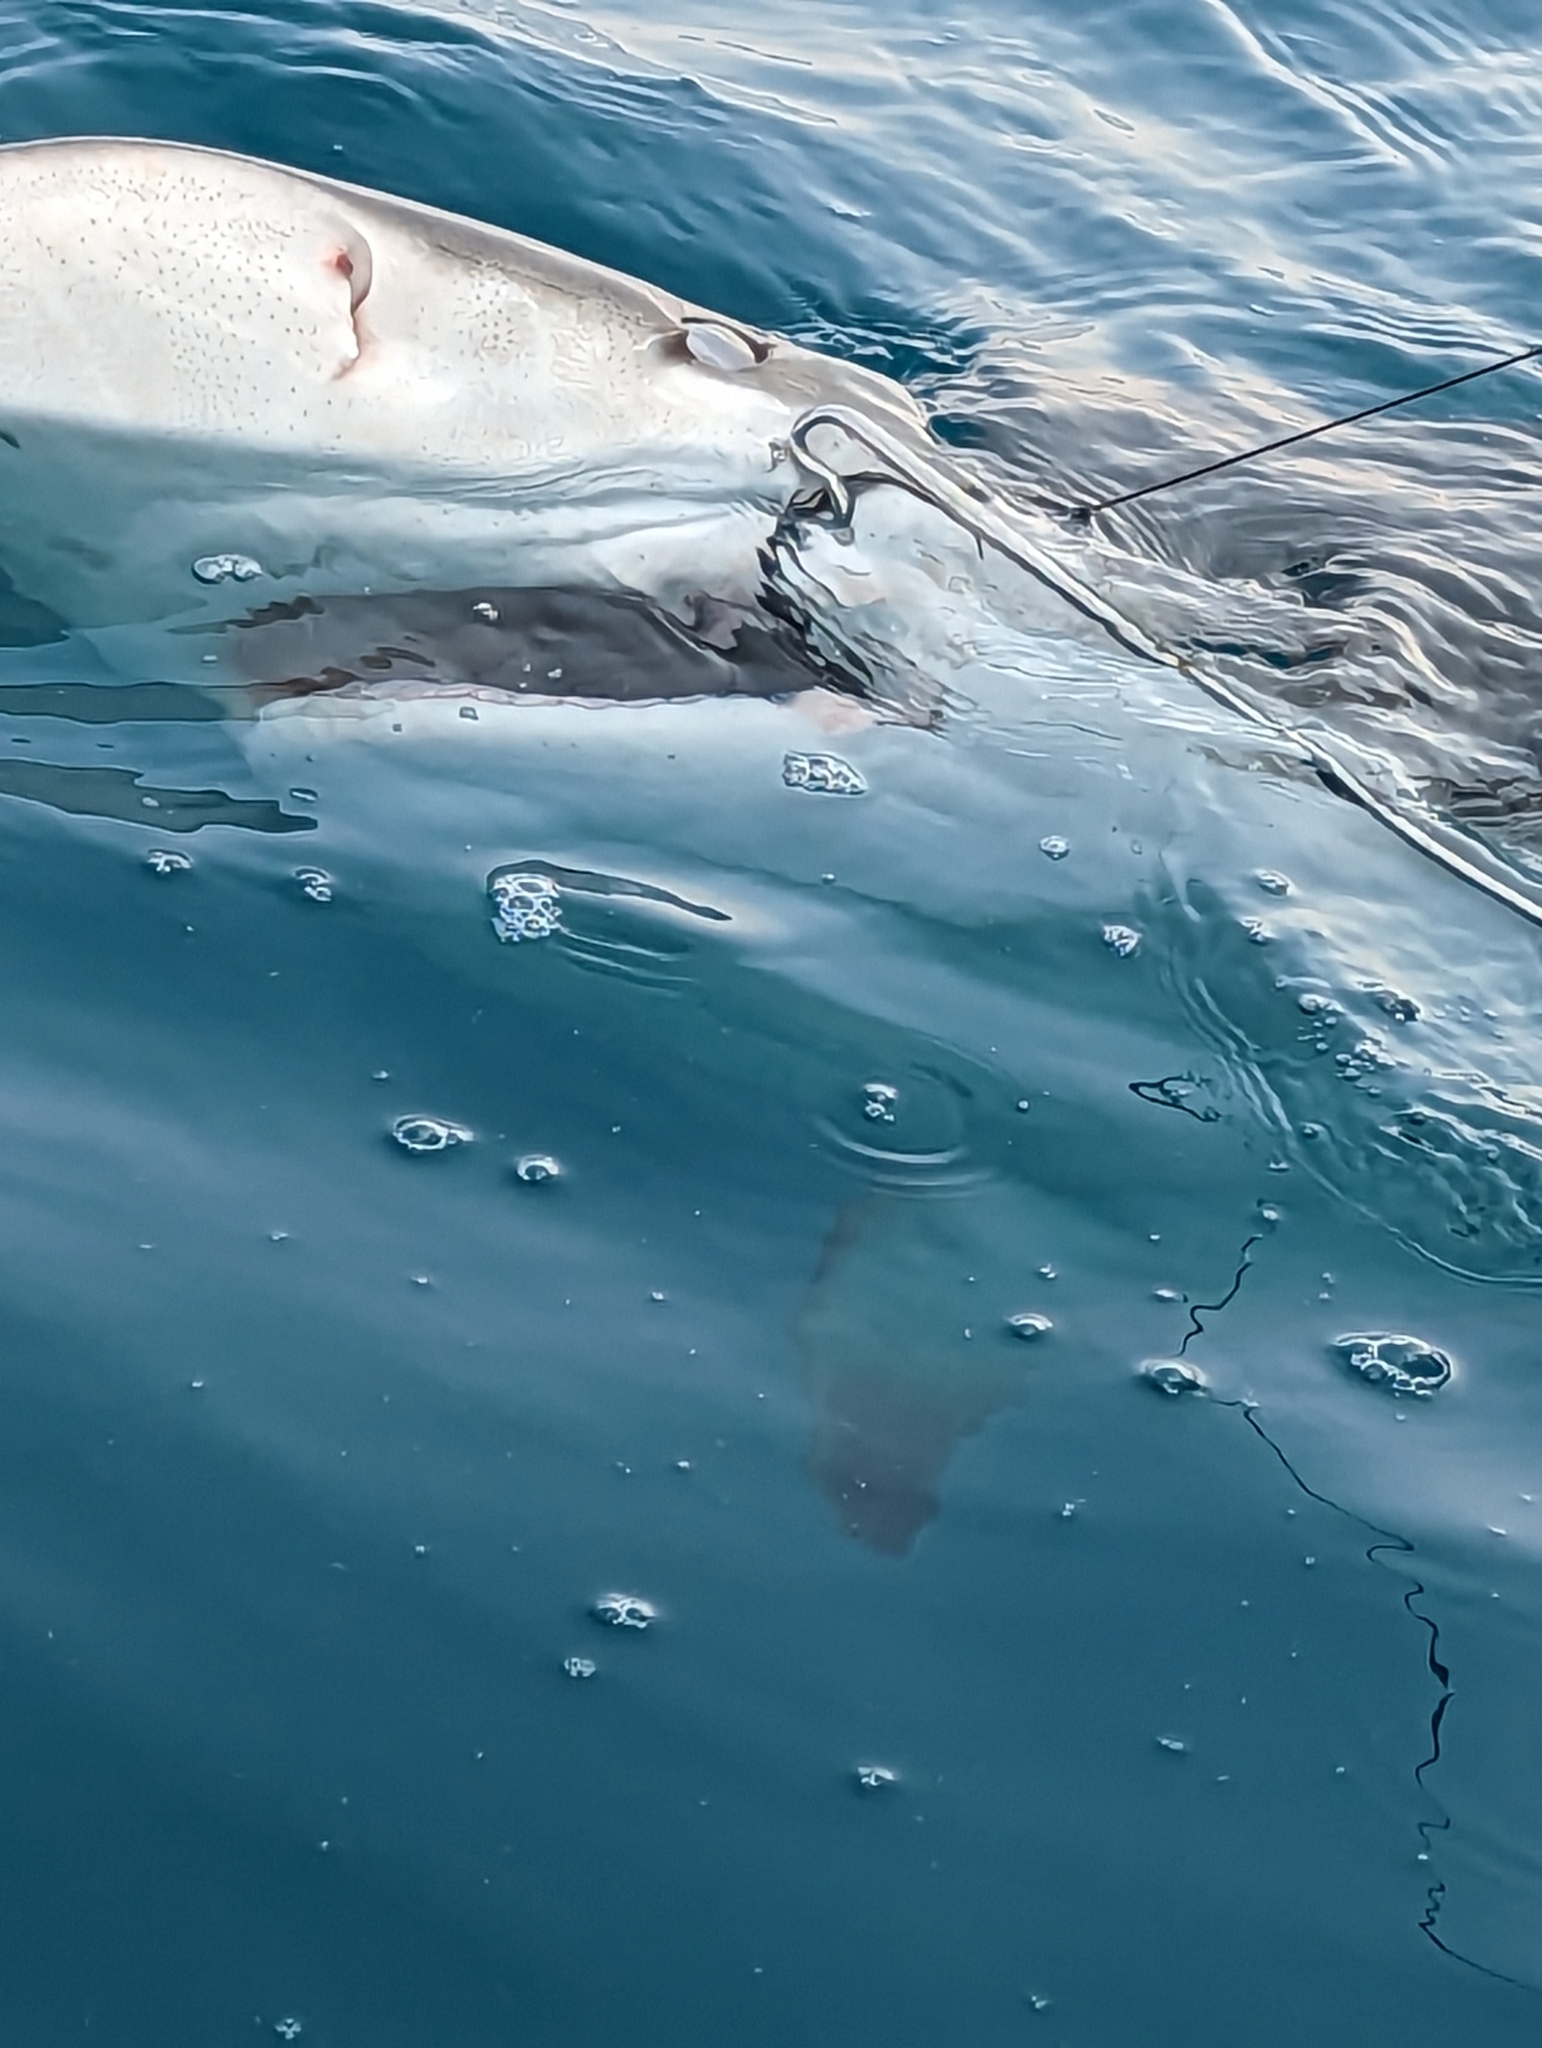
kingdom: Animalia
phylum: Chordata
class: Elasmobranchii
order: Carcharhiniformes
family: Carcharhinidae
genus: Carcharhinus
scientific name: Carcharhinus plumbeus
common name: Sandbar shark
